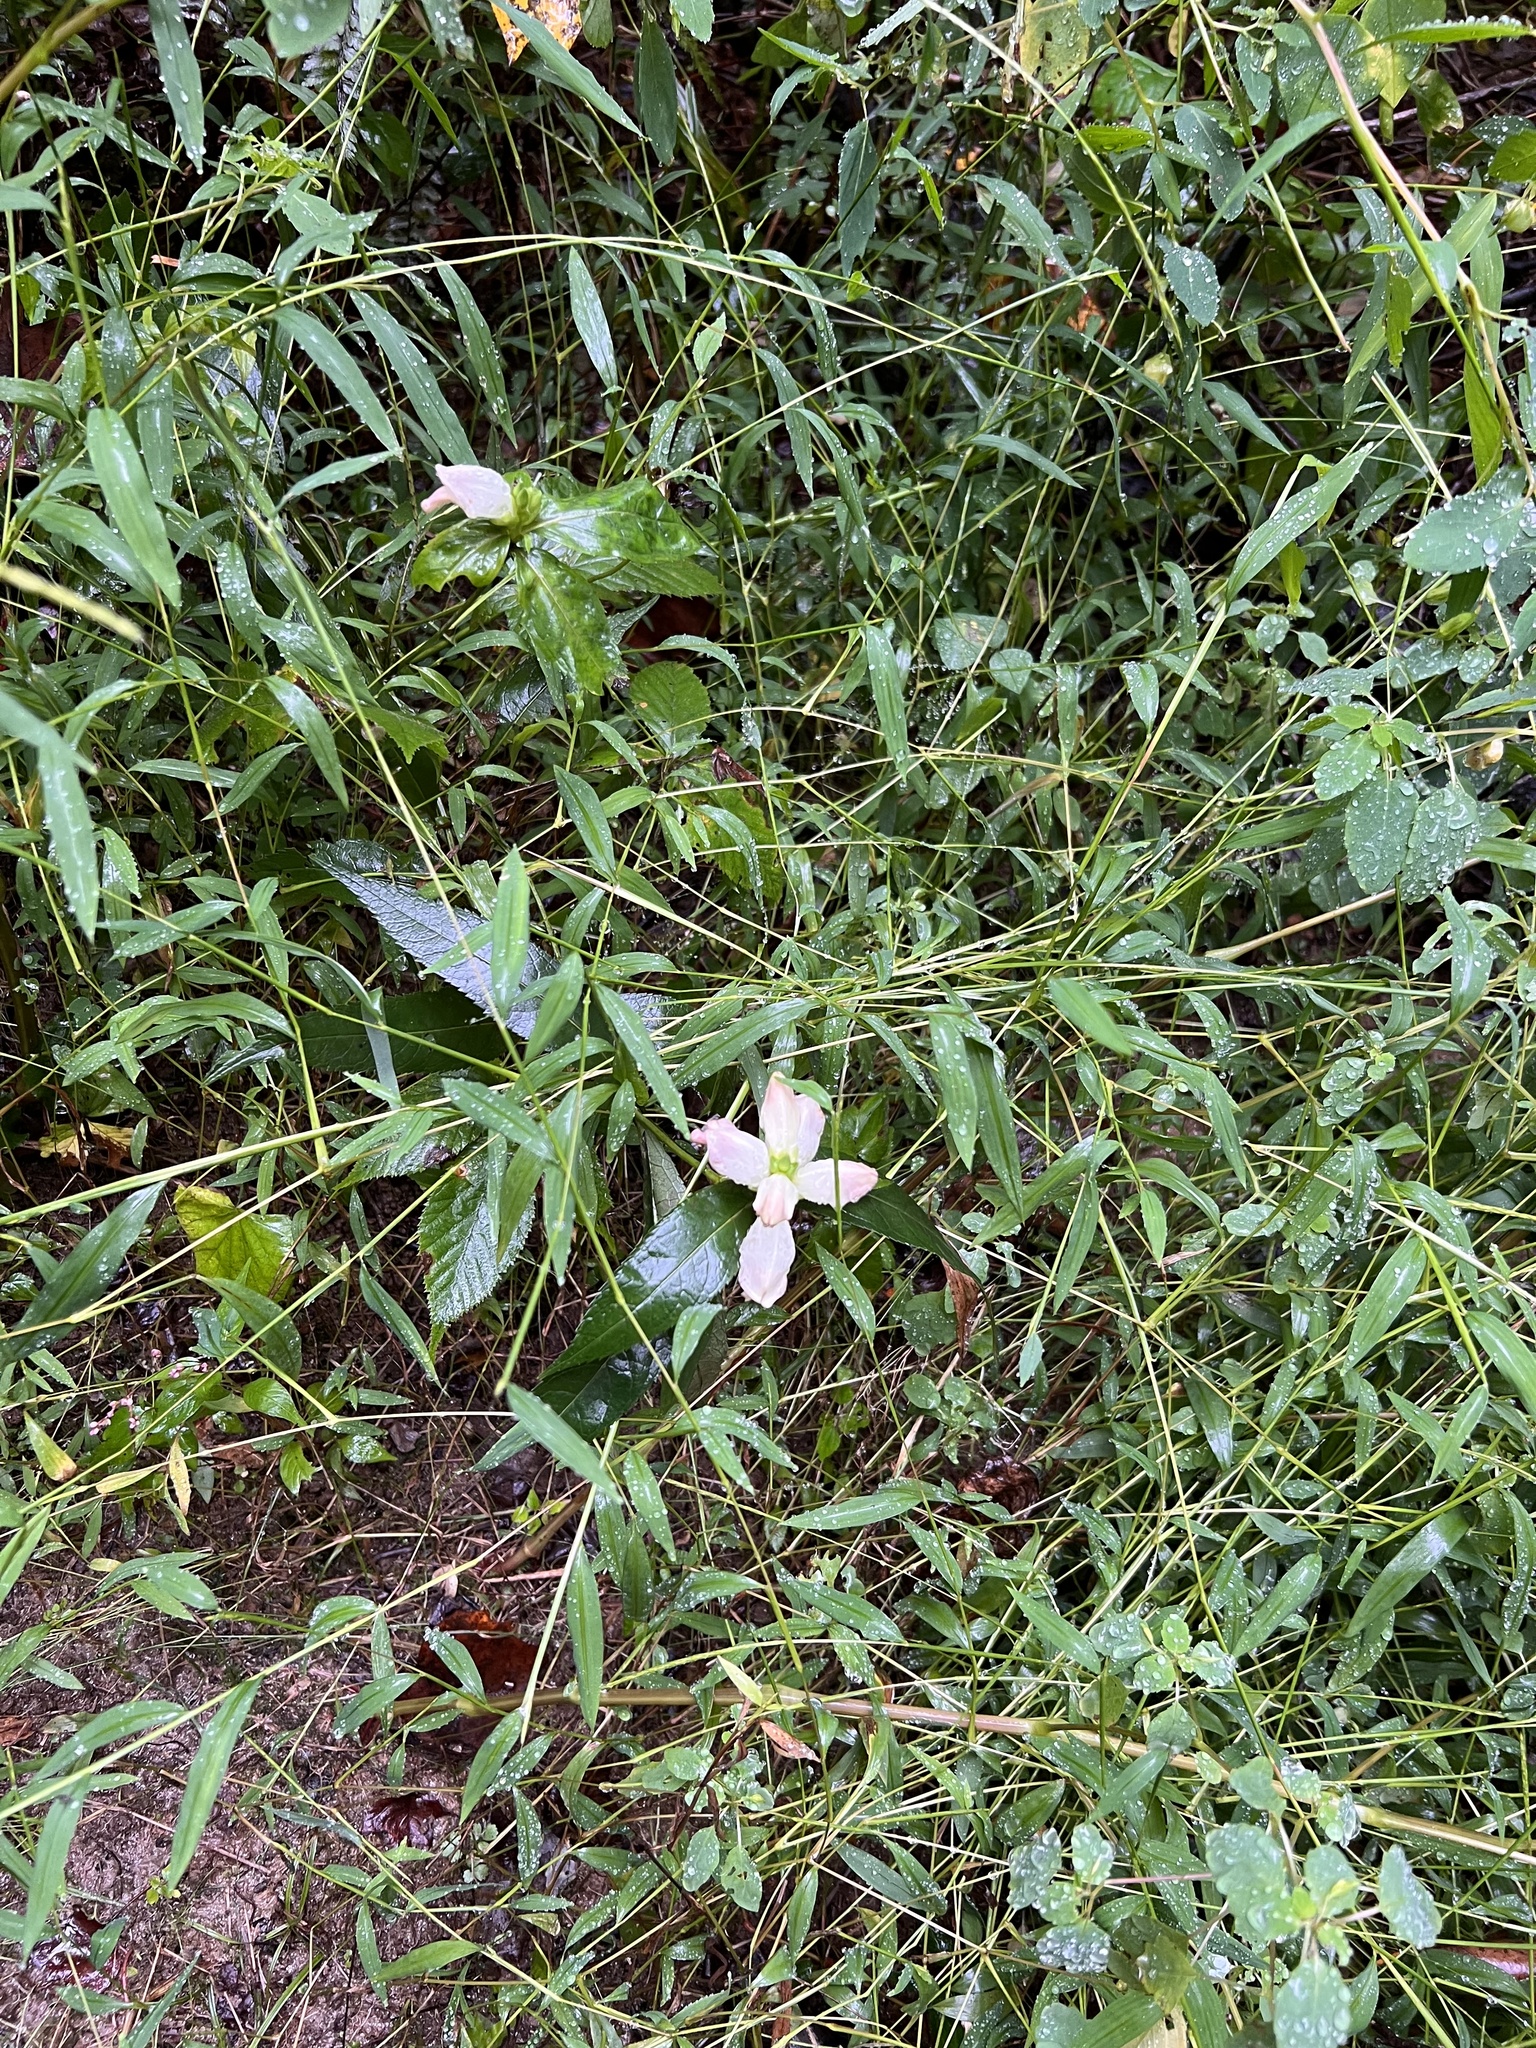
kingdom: Plantae
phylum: Tracheophyta
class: Magnoliopsida
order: Lamiales
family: Plantaginaceae
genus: Chelone
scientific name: Chelone glabra
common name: Snakehead
